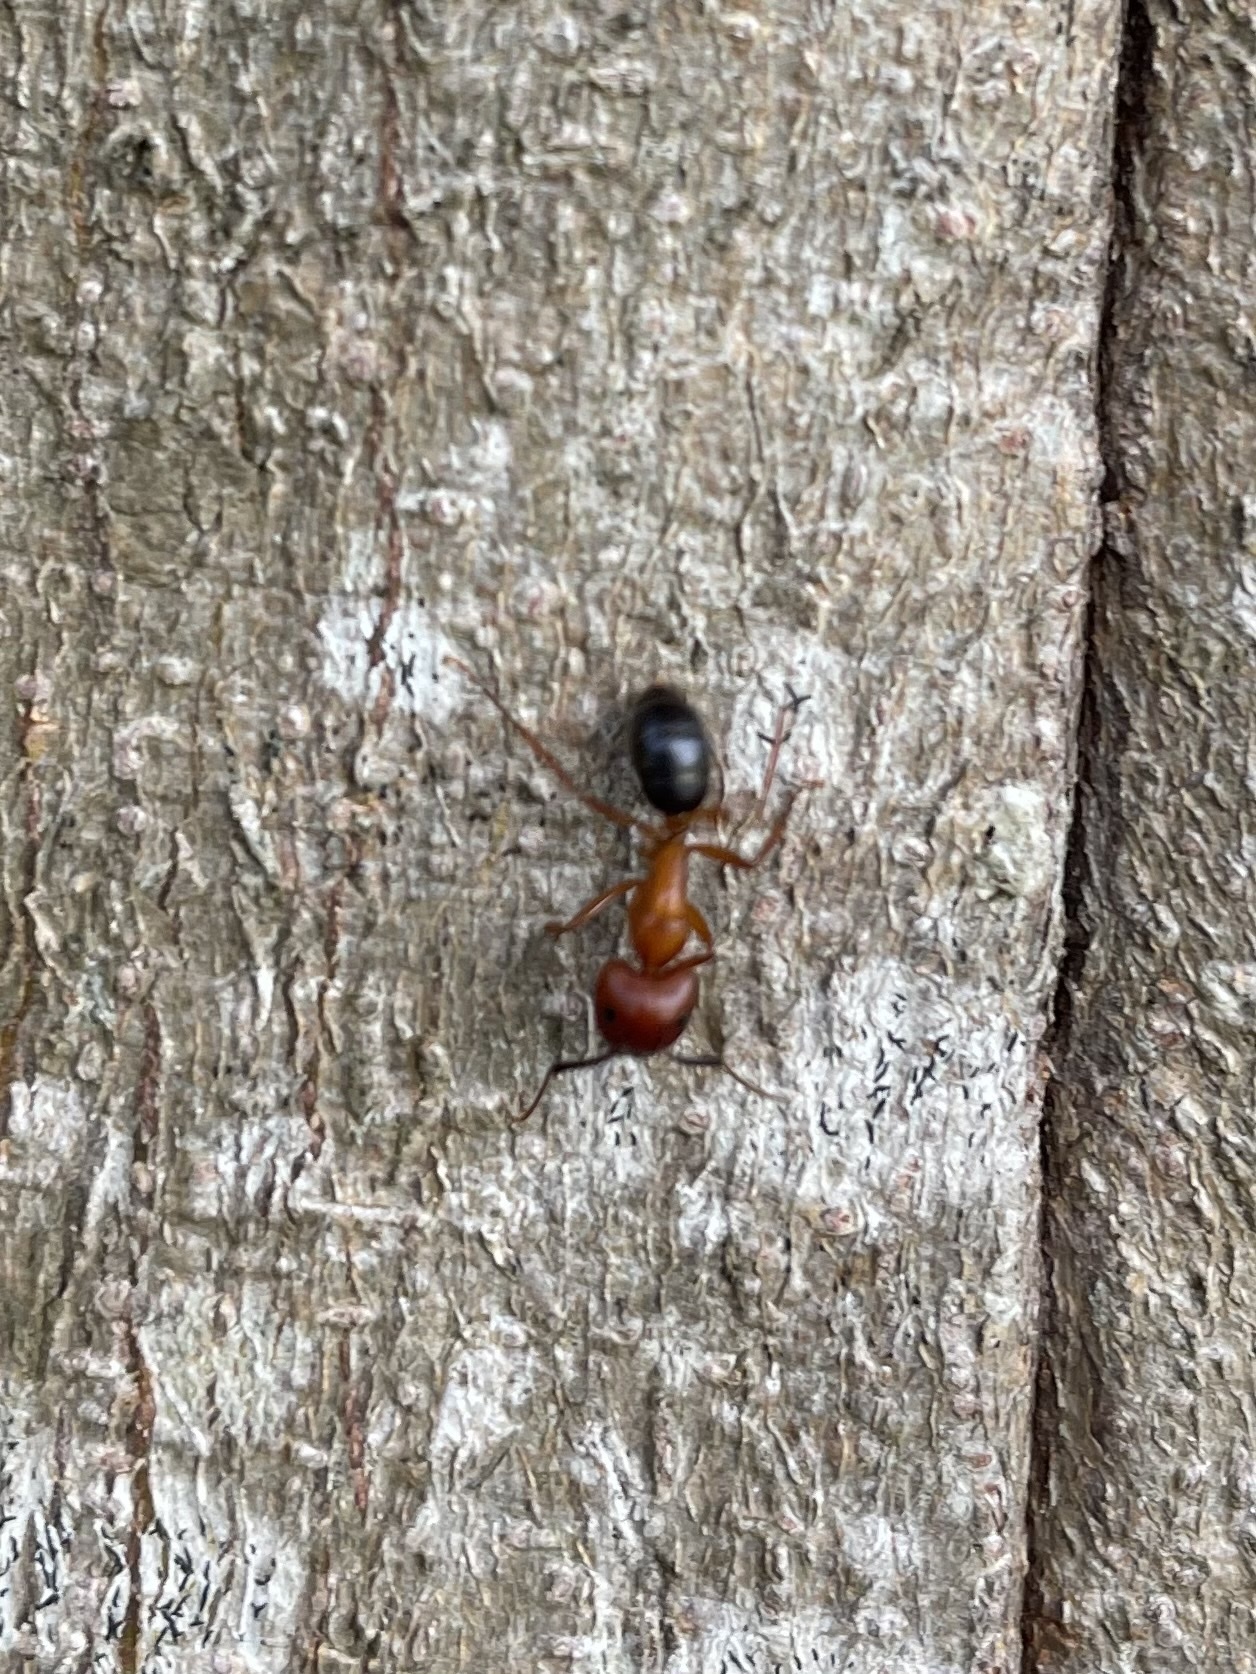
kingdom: Animalia
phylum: Arthropoda
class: Insecta
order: Hymenoptera
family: Formicidae
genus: Camponotus
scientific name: Camponotus floridanus
